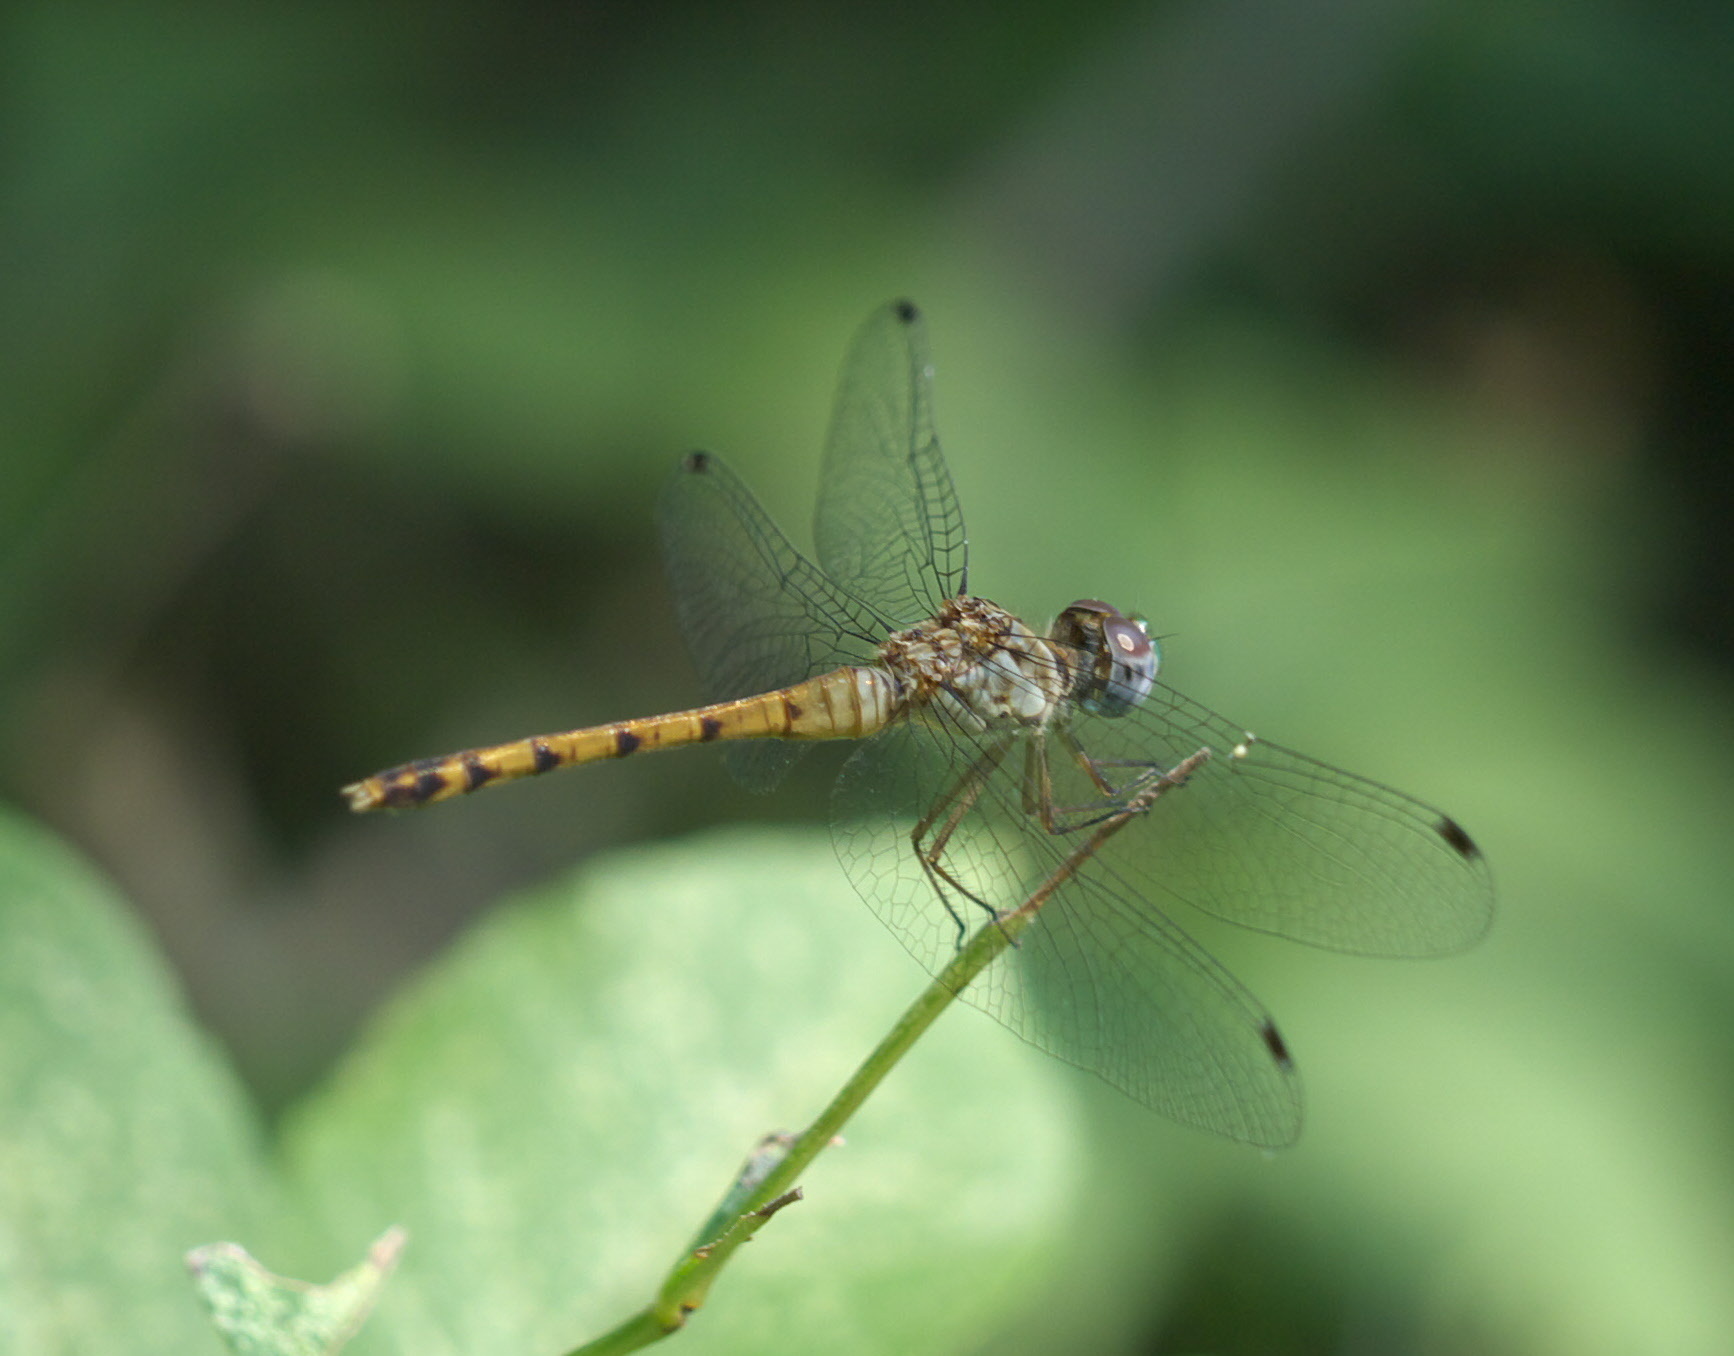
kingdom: Animalia
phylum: Arthropoda
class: Insecta
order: Odonata
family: Libellulidae
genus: Sympetrum
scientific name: Sympetrum ambiguum
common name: Blue-faced meadowhawk
